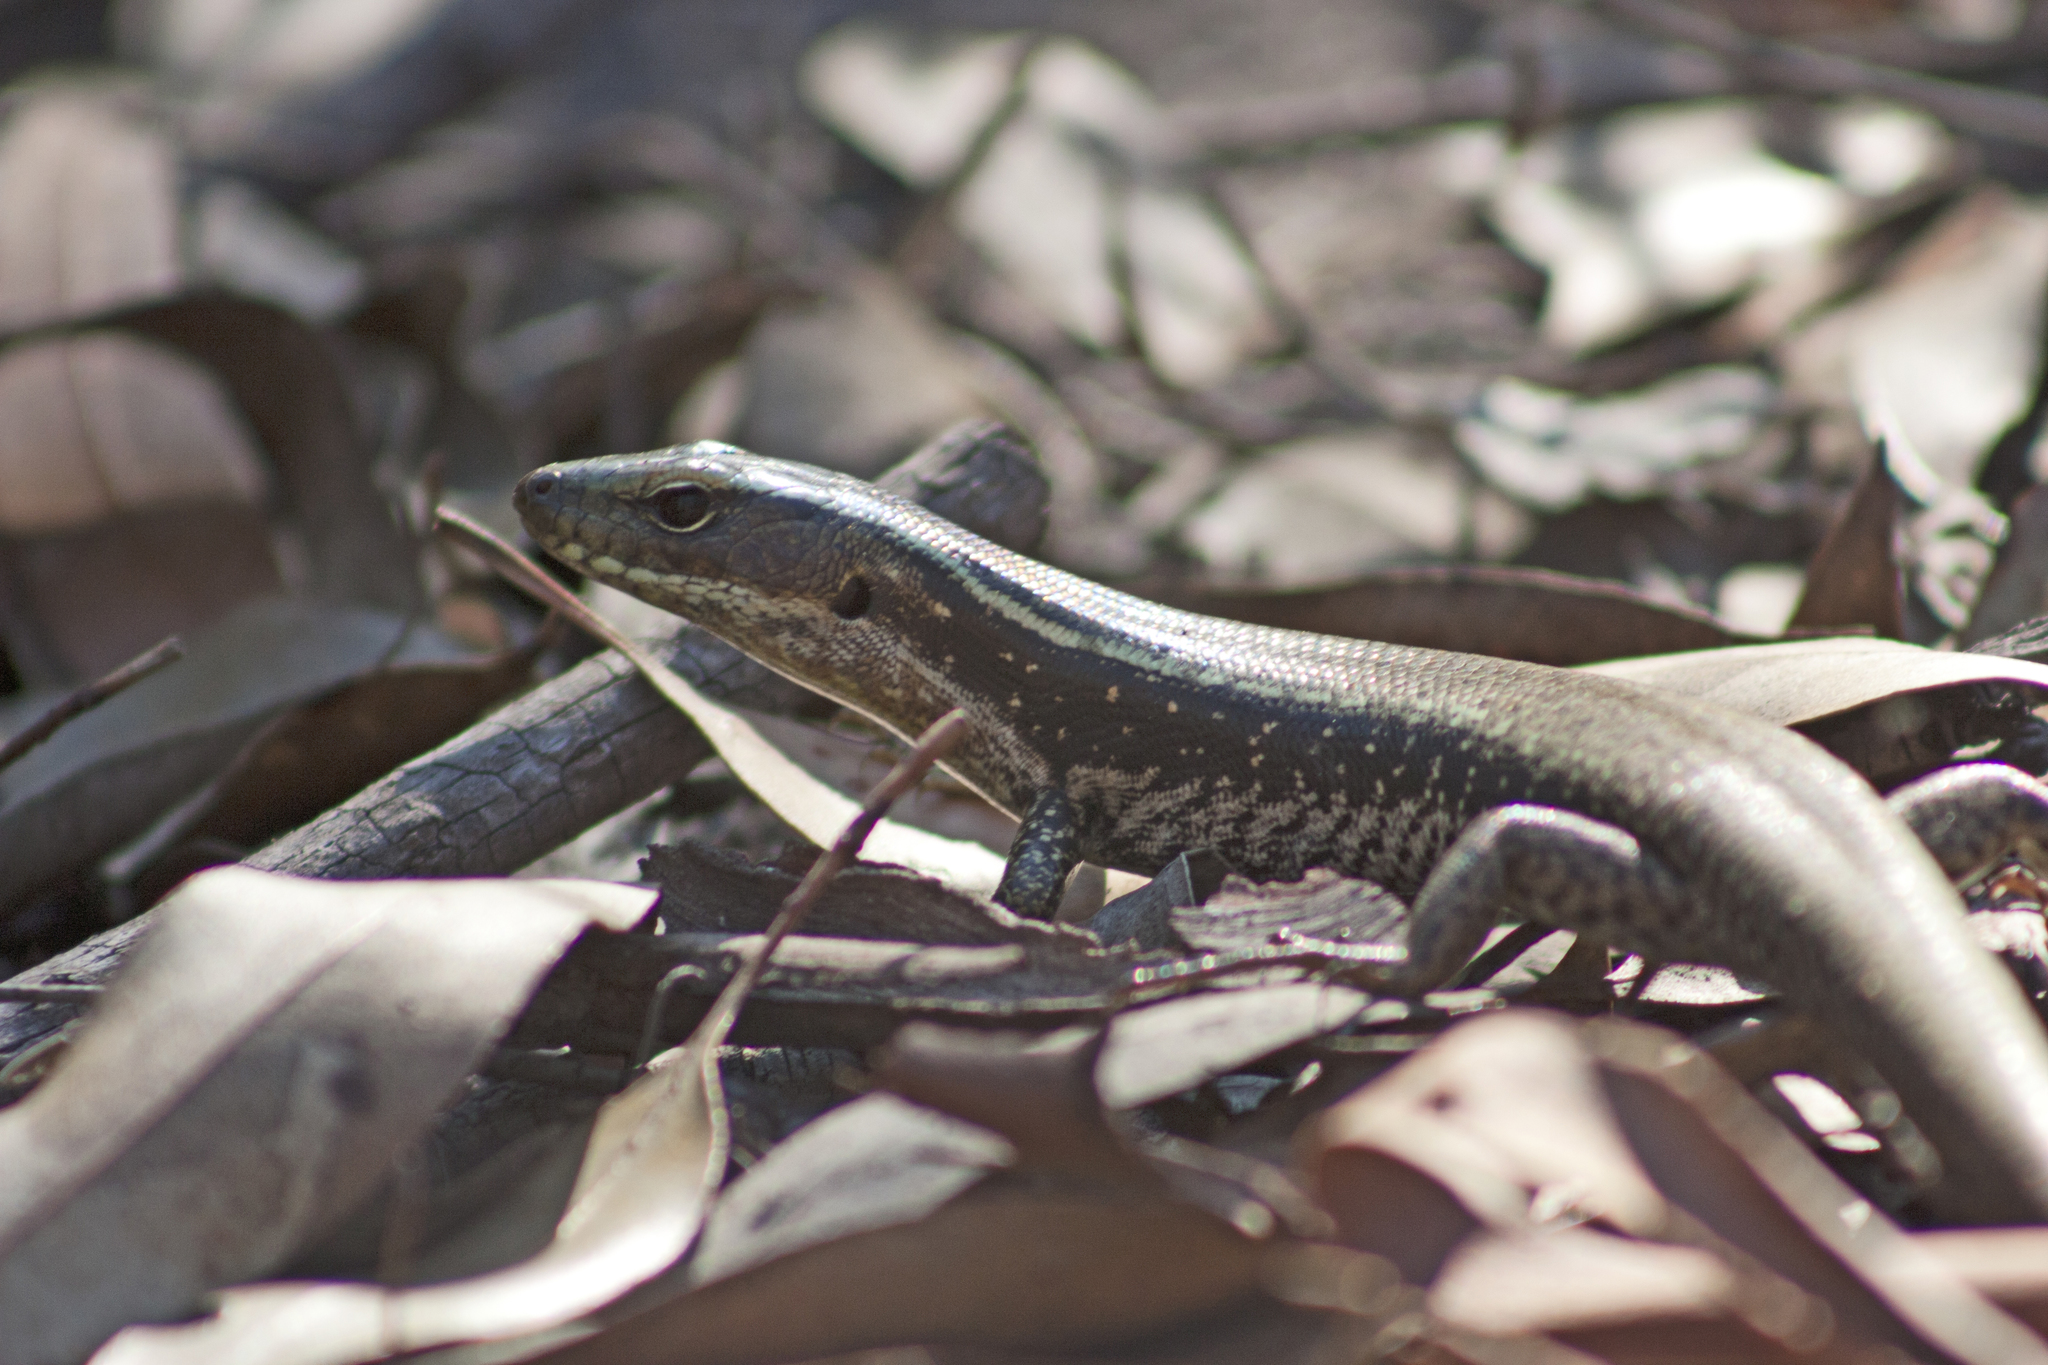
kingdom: Animalia
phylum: Chordata
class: Squamata
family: Scincidae
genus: Eulamprus
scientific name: Eulamprus quoyii
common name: Eastern water skink
